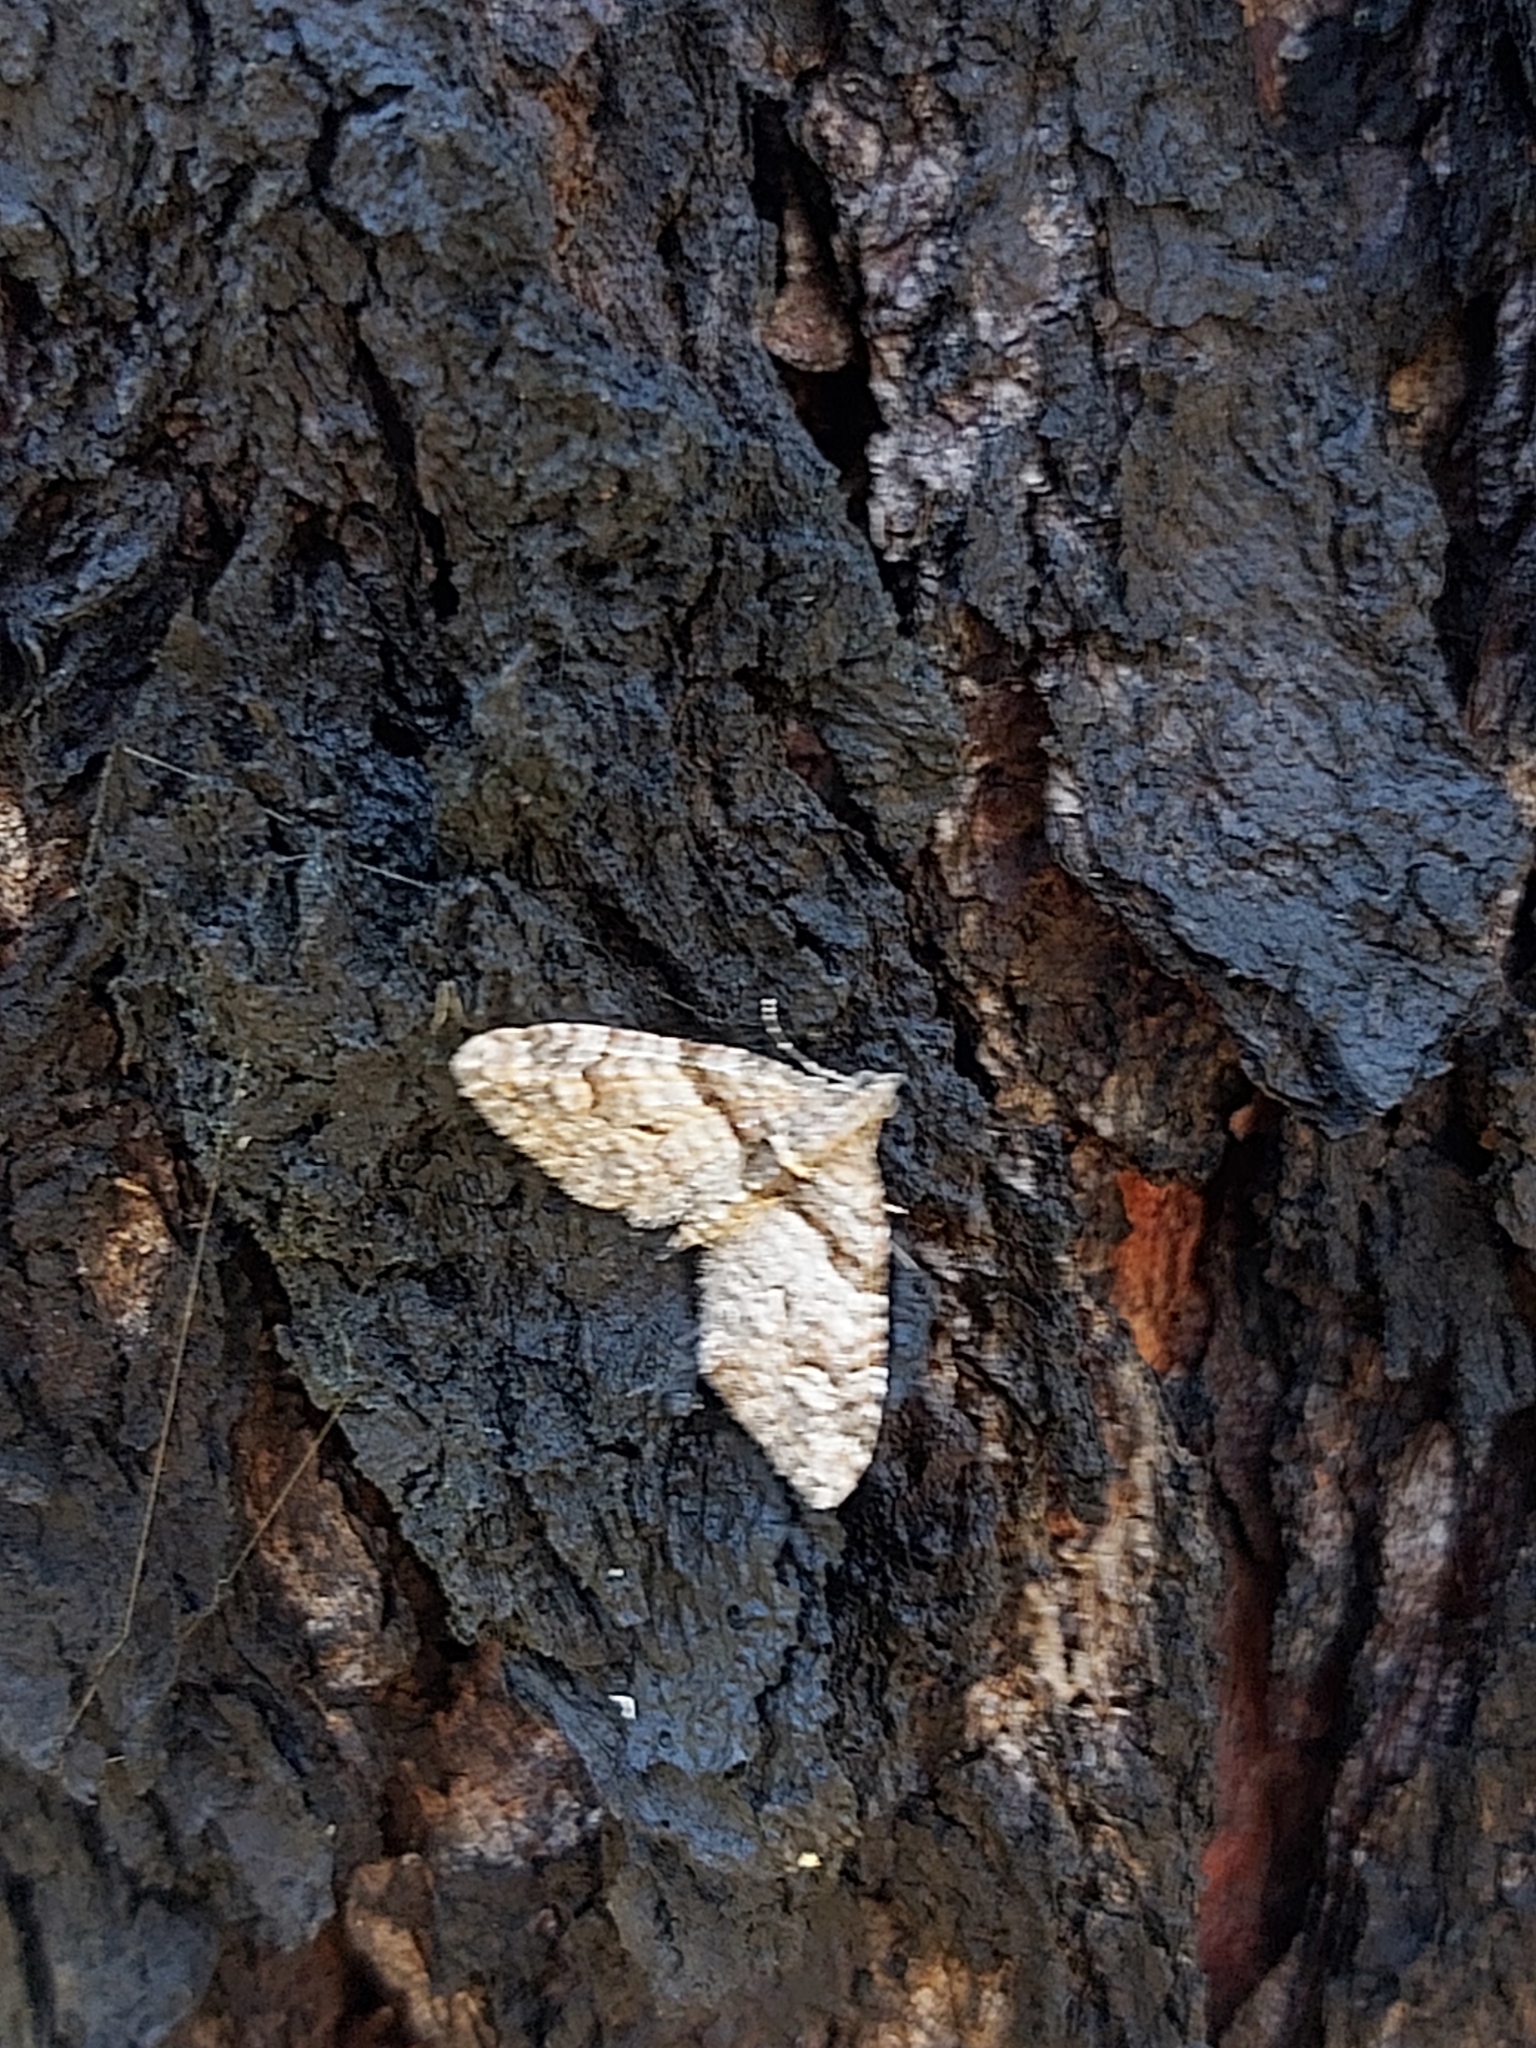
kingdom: Animalia
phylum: Arthropoda
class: Insecta
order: Lepidoptera
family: Geometridae
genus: Phrissogonus
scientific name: Phrissogonus laticostata
